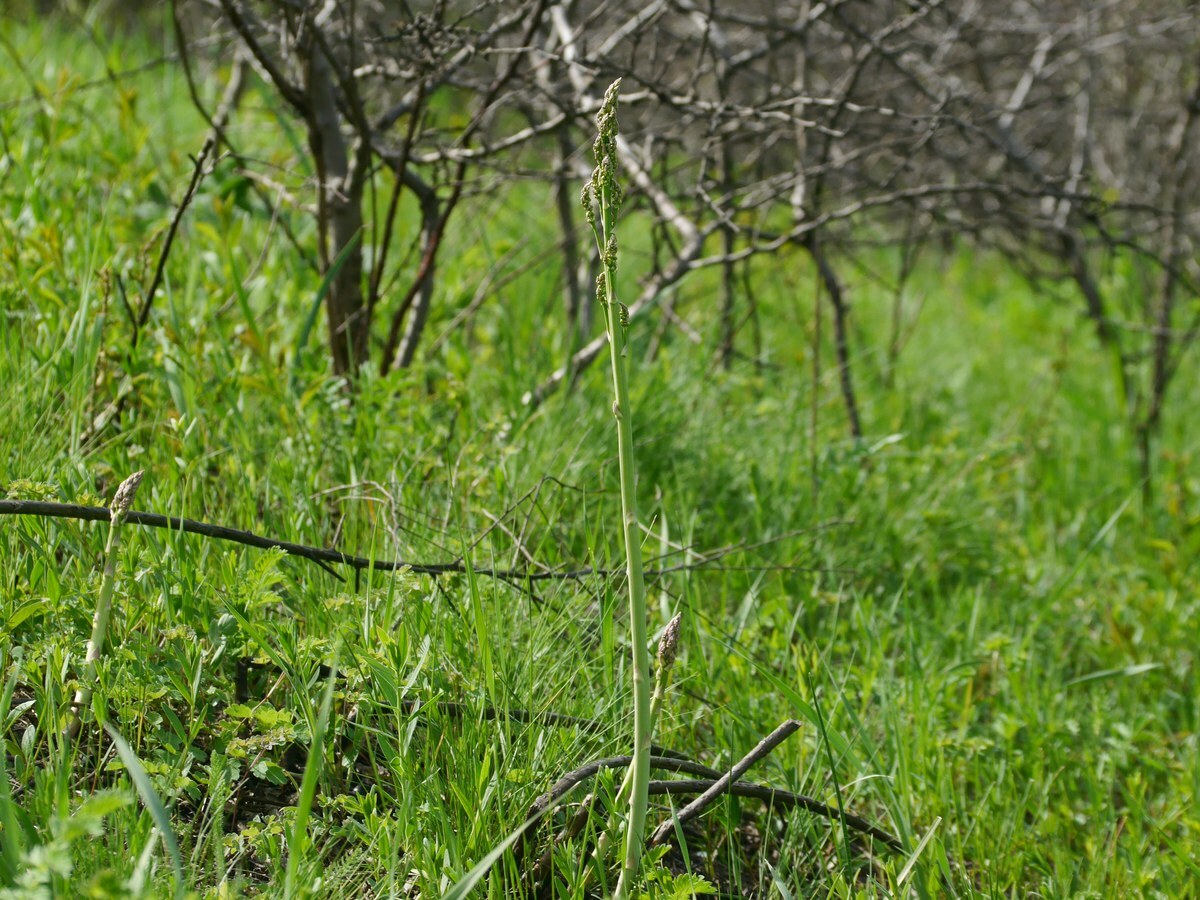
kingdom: Plantae
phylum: Tracheophyta
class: Liliopsida
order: Asparagales
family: Asparagaceae
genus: Asparagus
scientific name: Asparagus officinalis
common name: Garden asparagus
